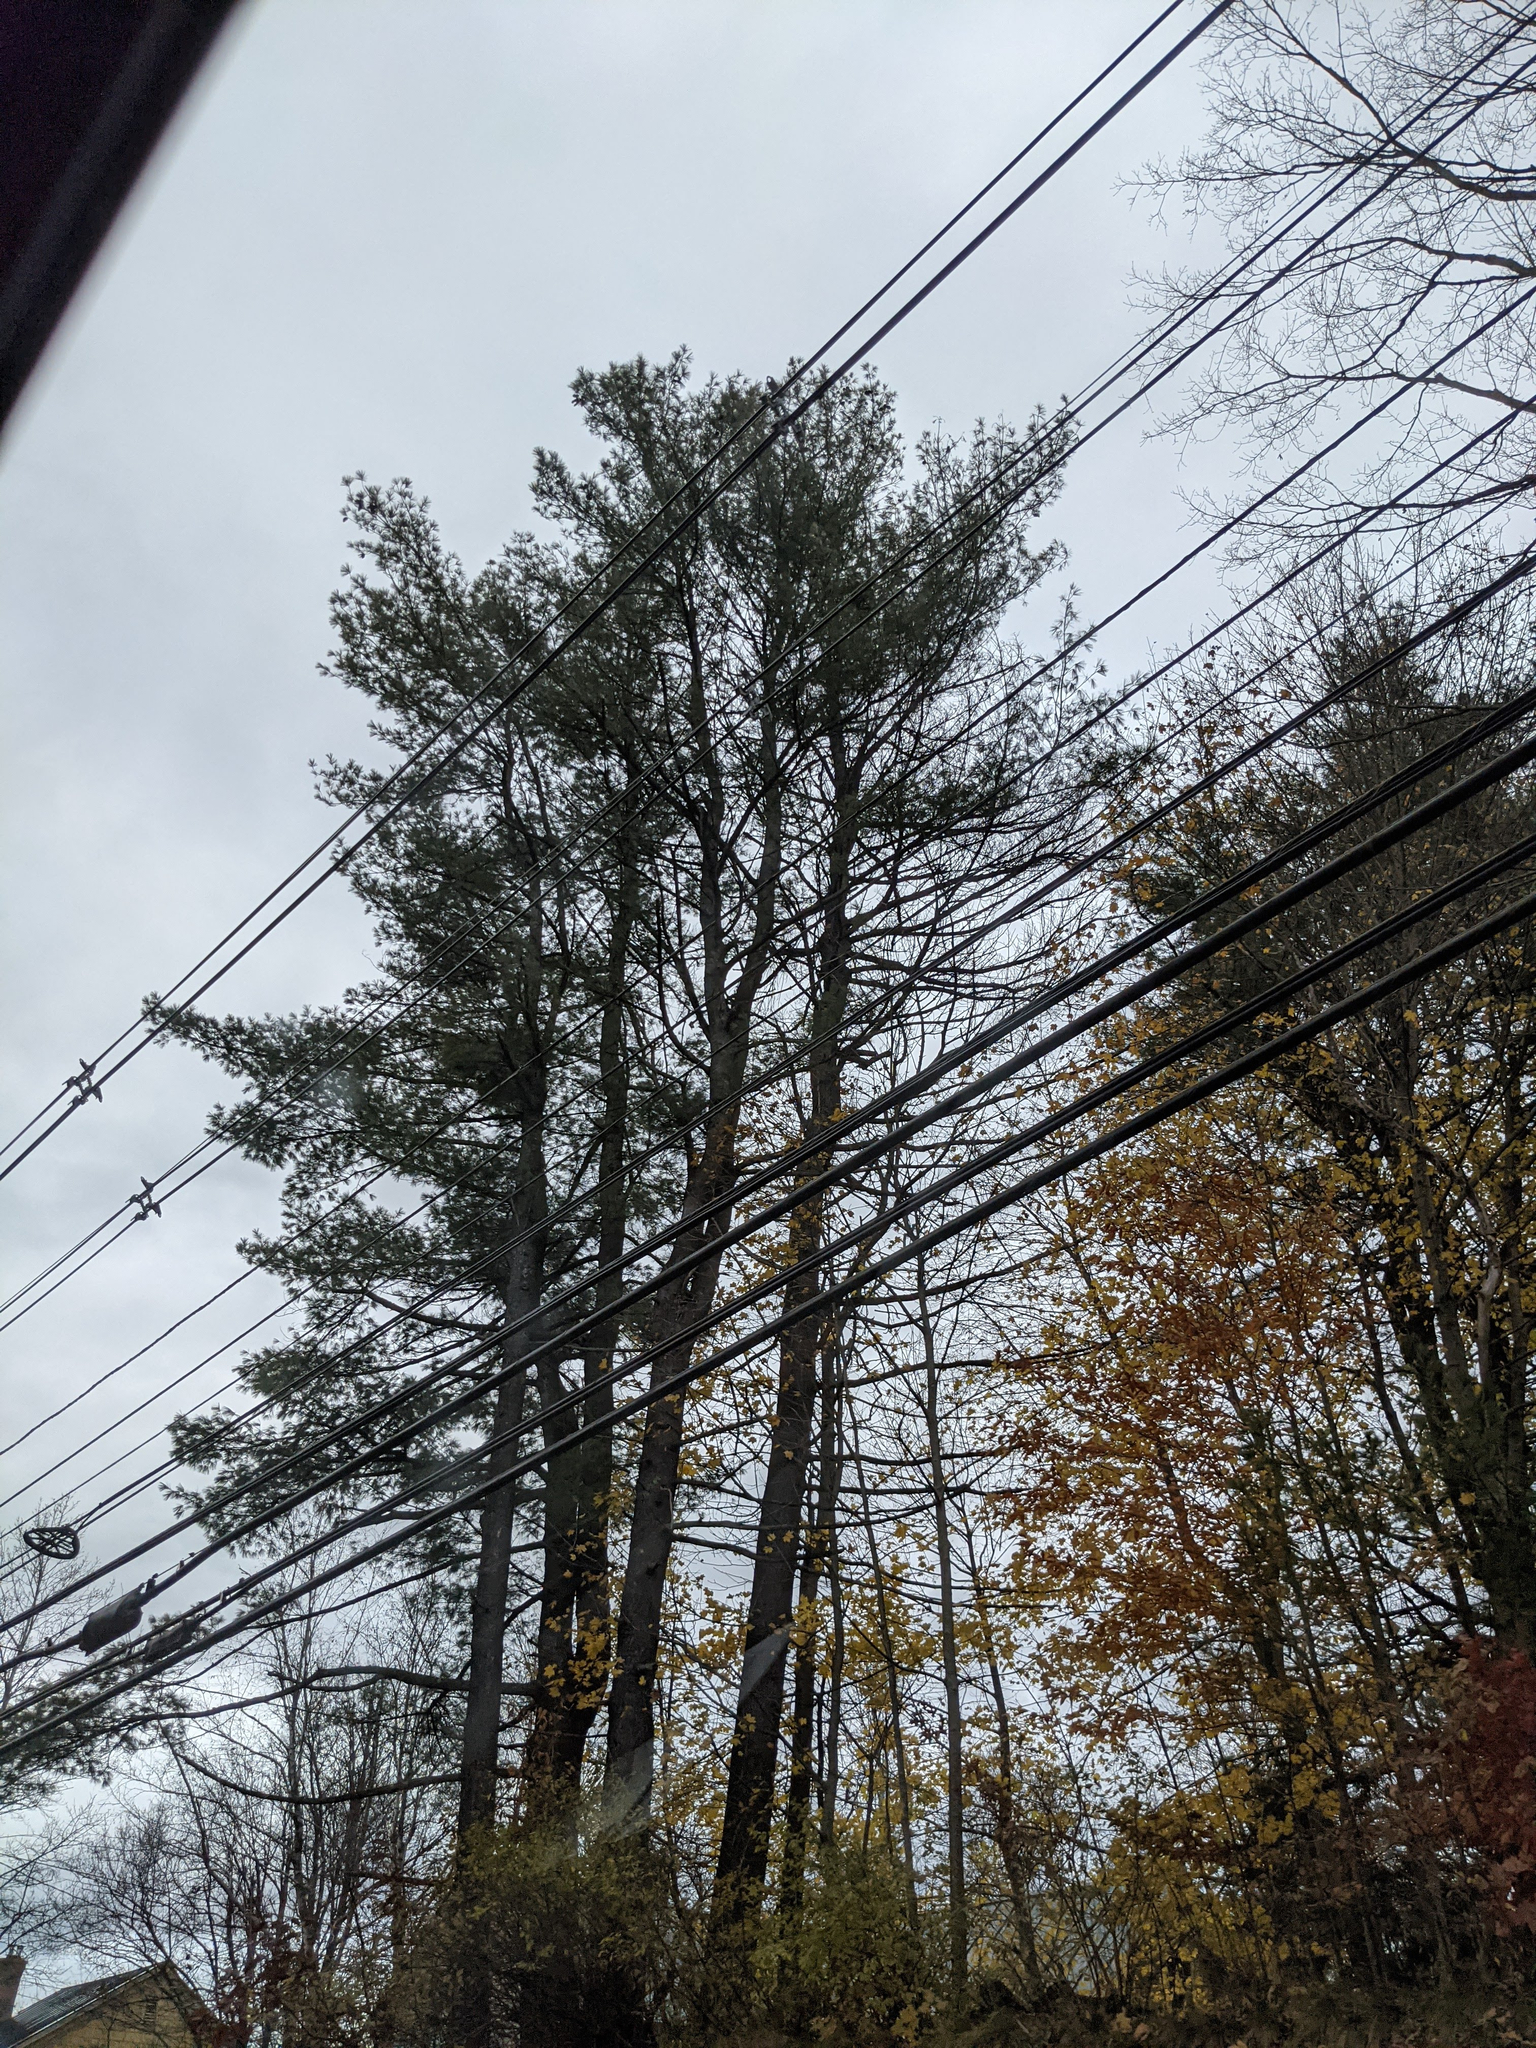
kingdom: Plantae
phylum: Tracheophyta
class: Pinopsida
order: Pinales
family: Pinaceae
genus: Pinus
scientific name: Pinus strobus
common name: Weymouth pine
